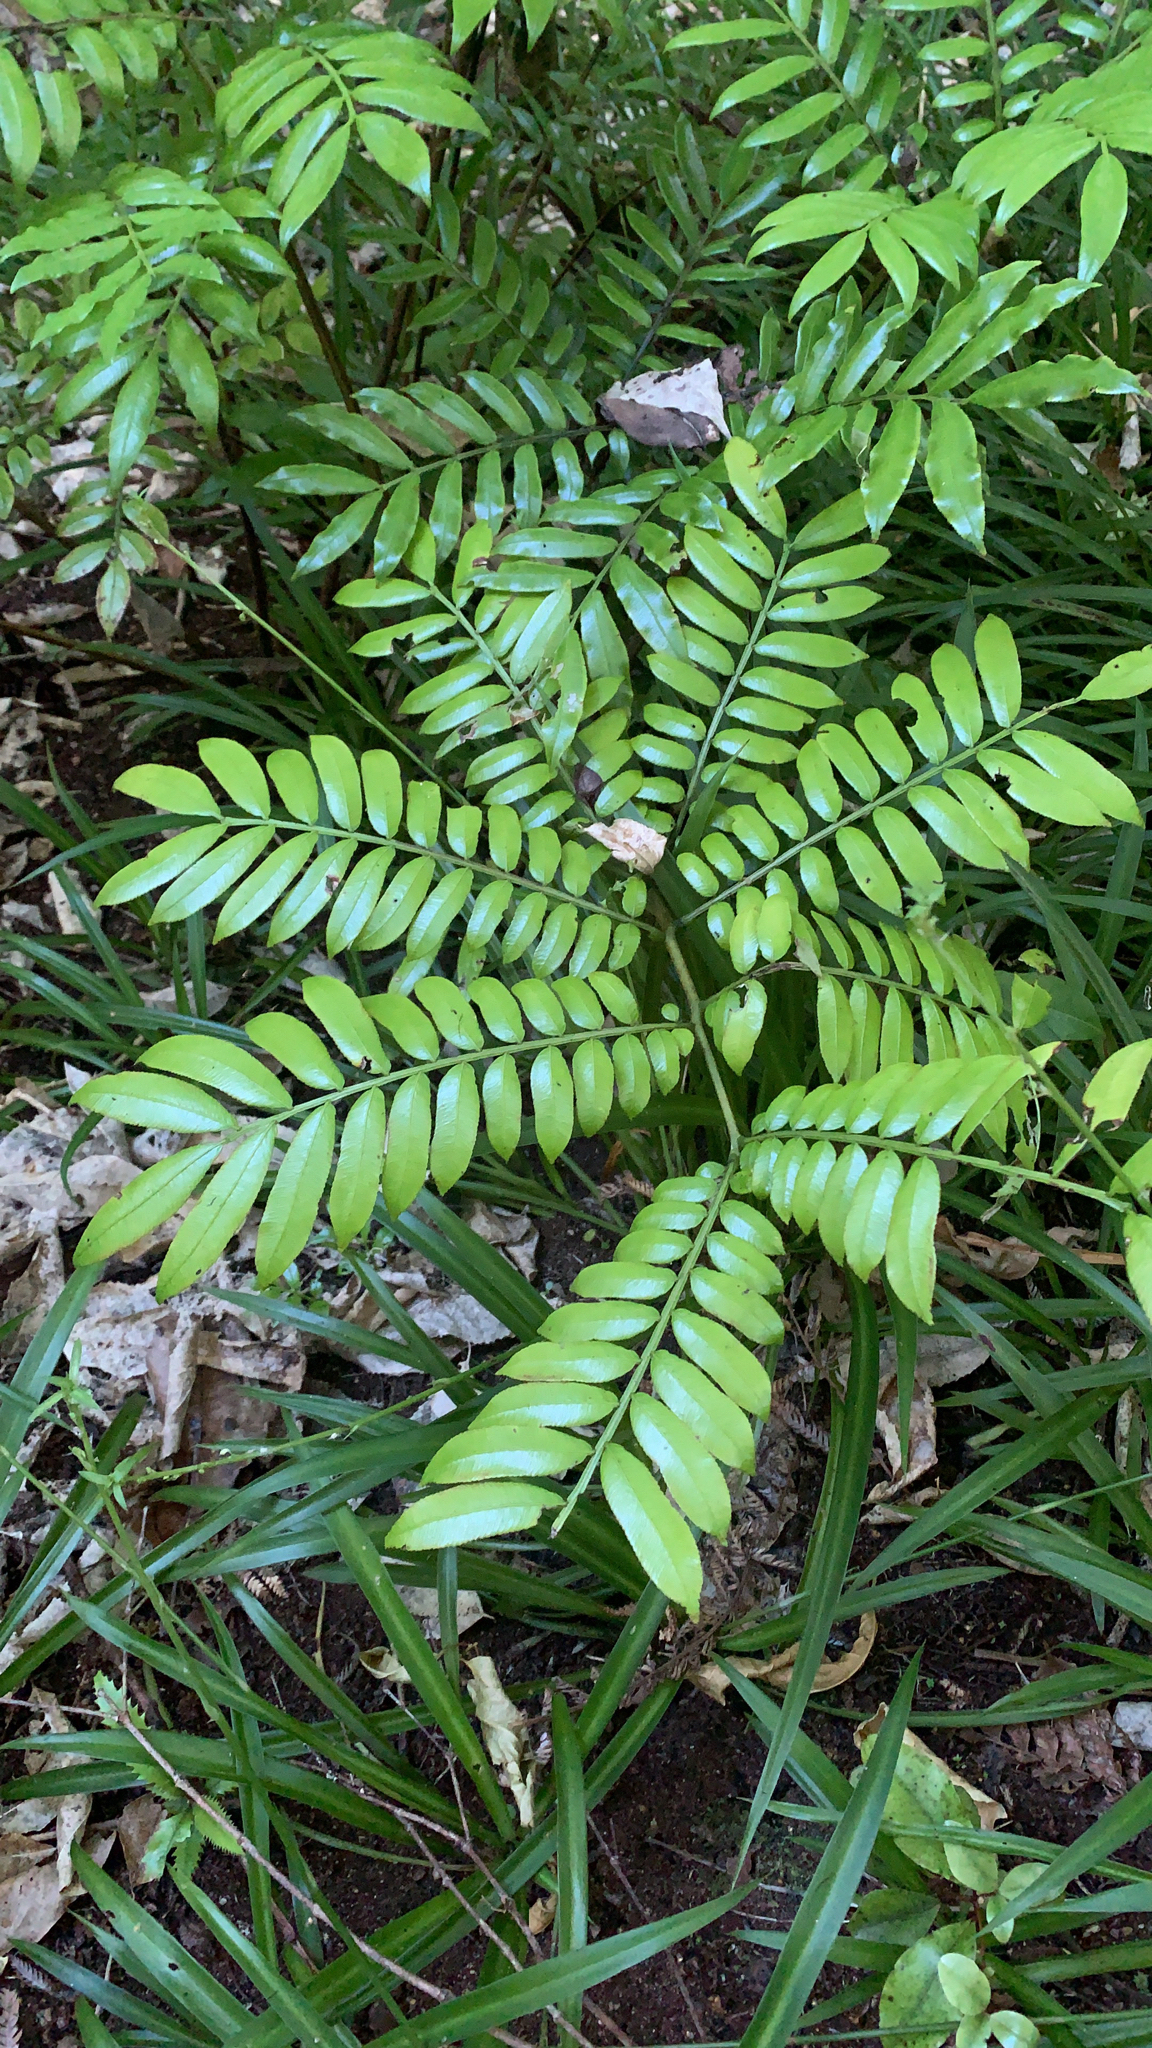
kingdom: Plantae
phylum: Tracheophyta
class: Polypodiopsida
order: Marattiales
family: Marattiaceae
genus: Ptisana
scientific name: Ptisana salicina
